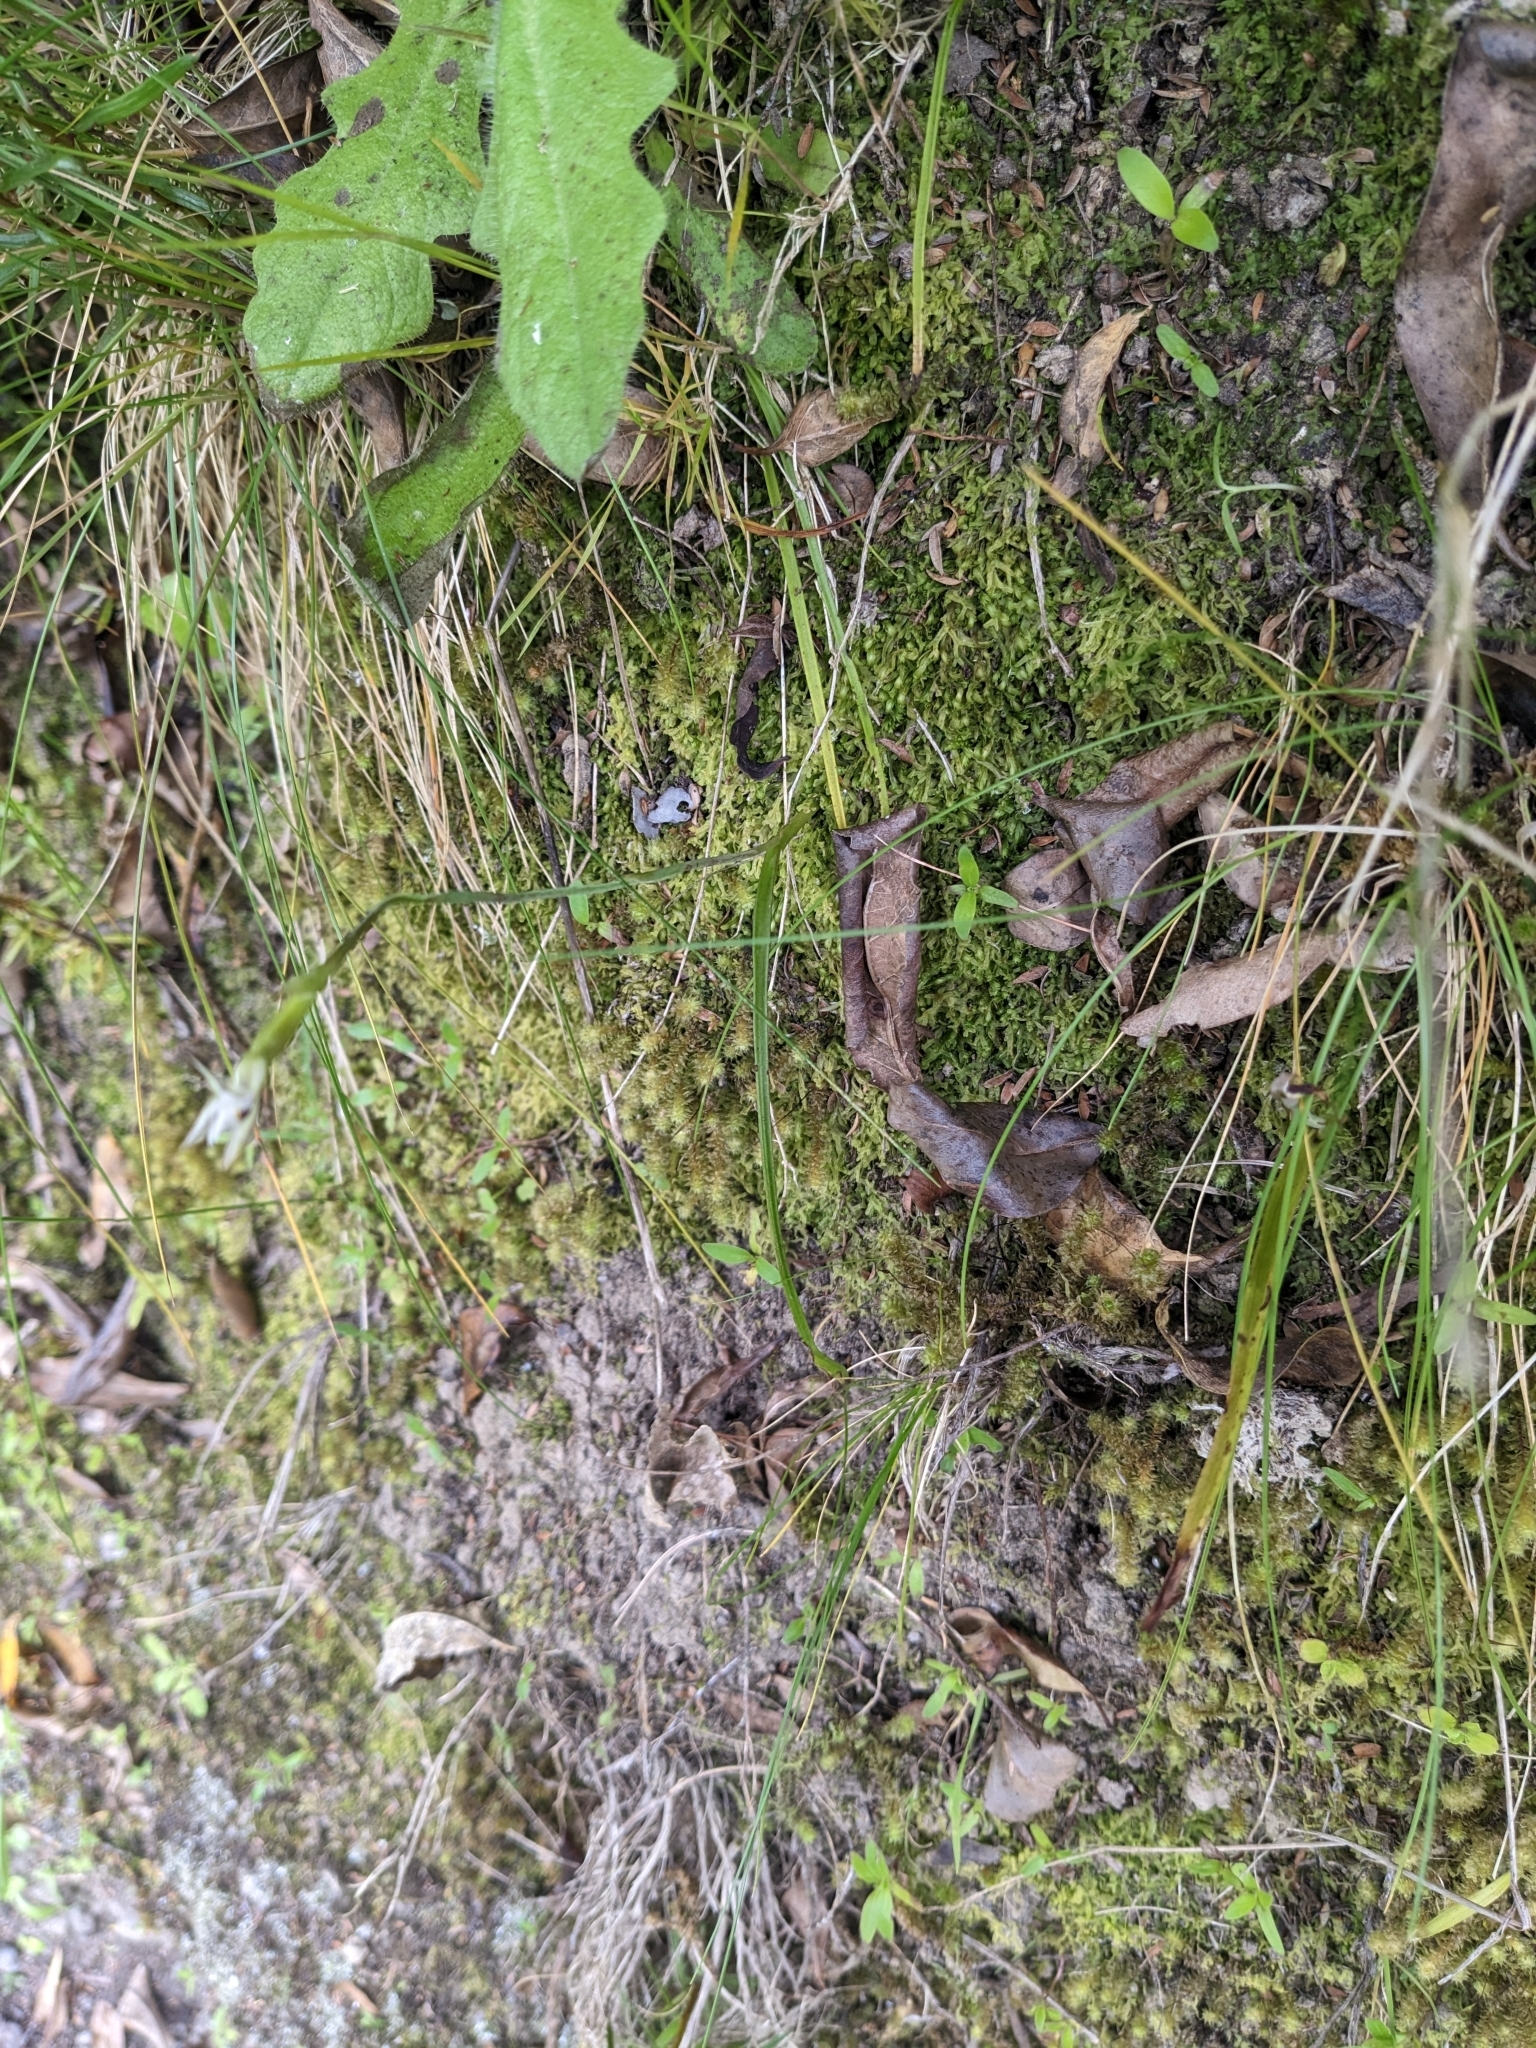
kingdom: Plantae
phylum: Tracheophyta
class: Liliopsida
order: Asparagales
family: Orchidaceae
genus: Thelymitra
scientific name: Thelymitra longifolia
